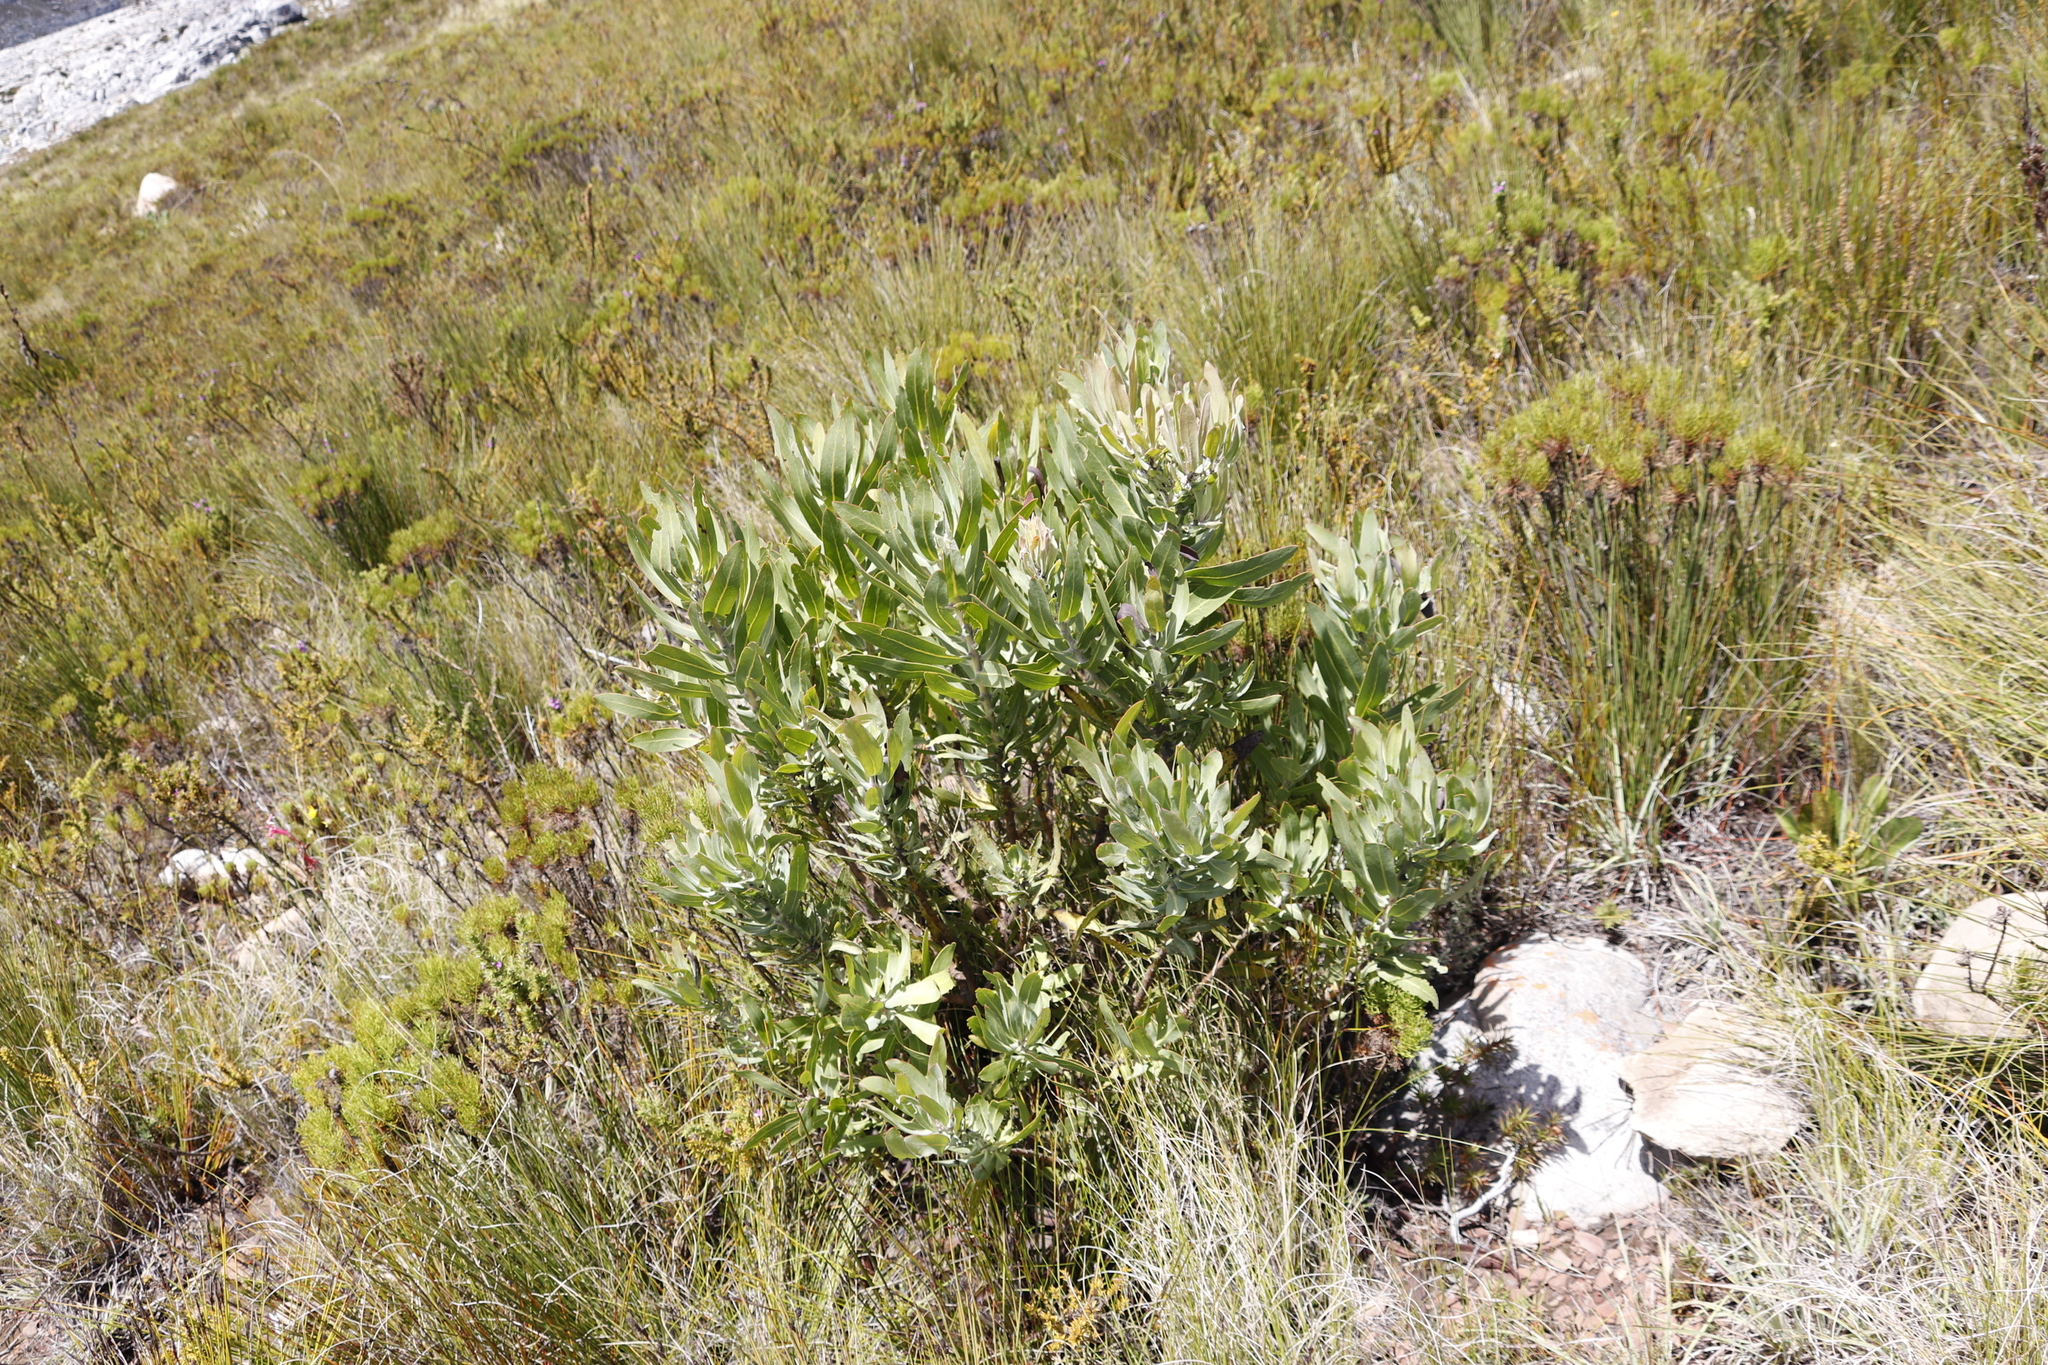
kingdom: Plantae
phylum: Tracheophyta
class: Magnoliopsida
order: Proteales
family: Proteaceae
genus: Protea
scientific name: Protea laurifolia
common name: Grey-leaf sugarbsh
